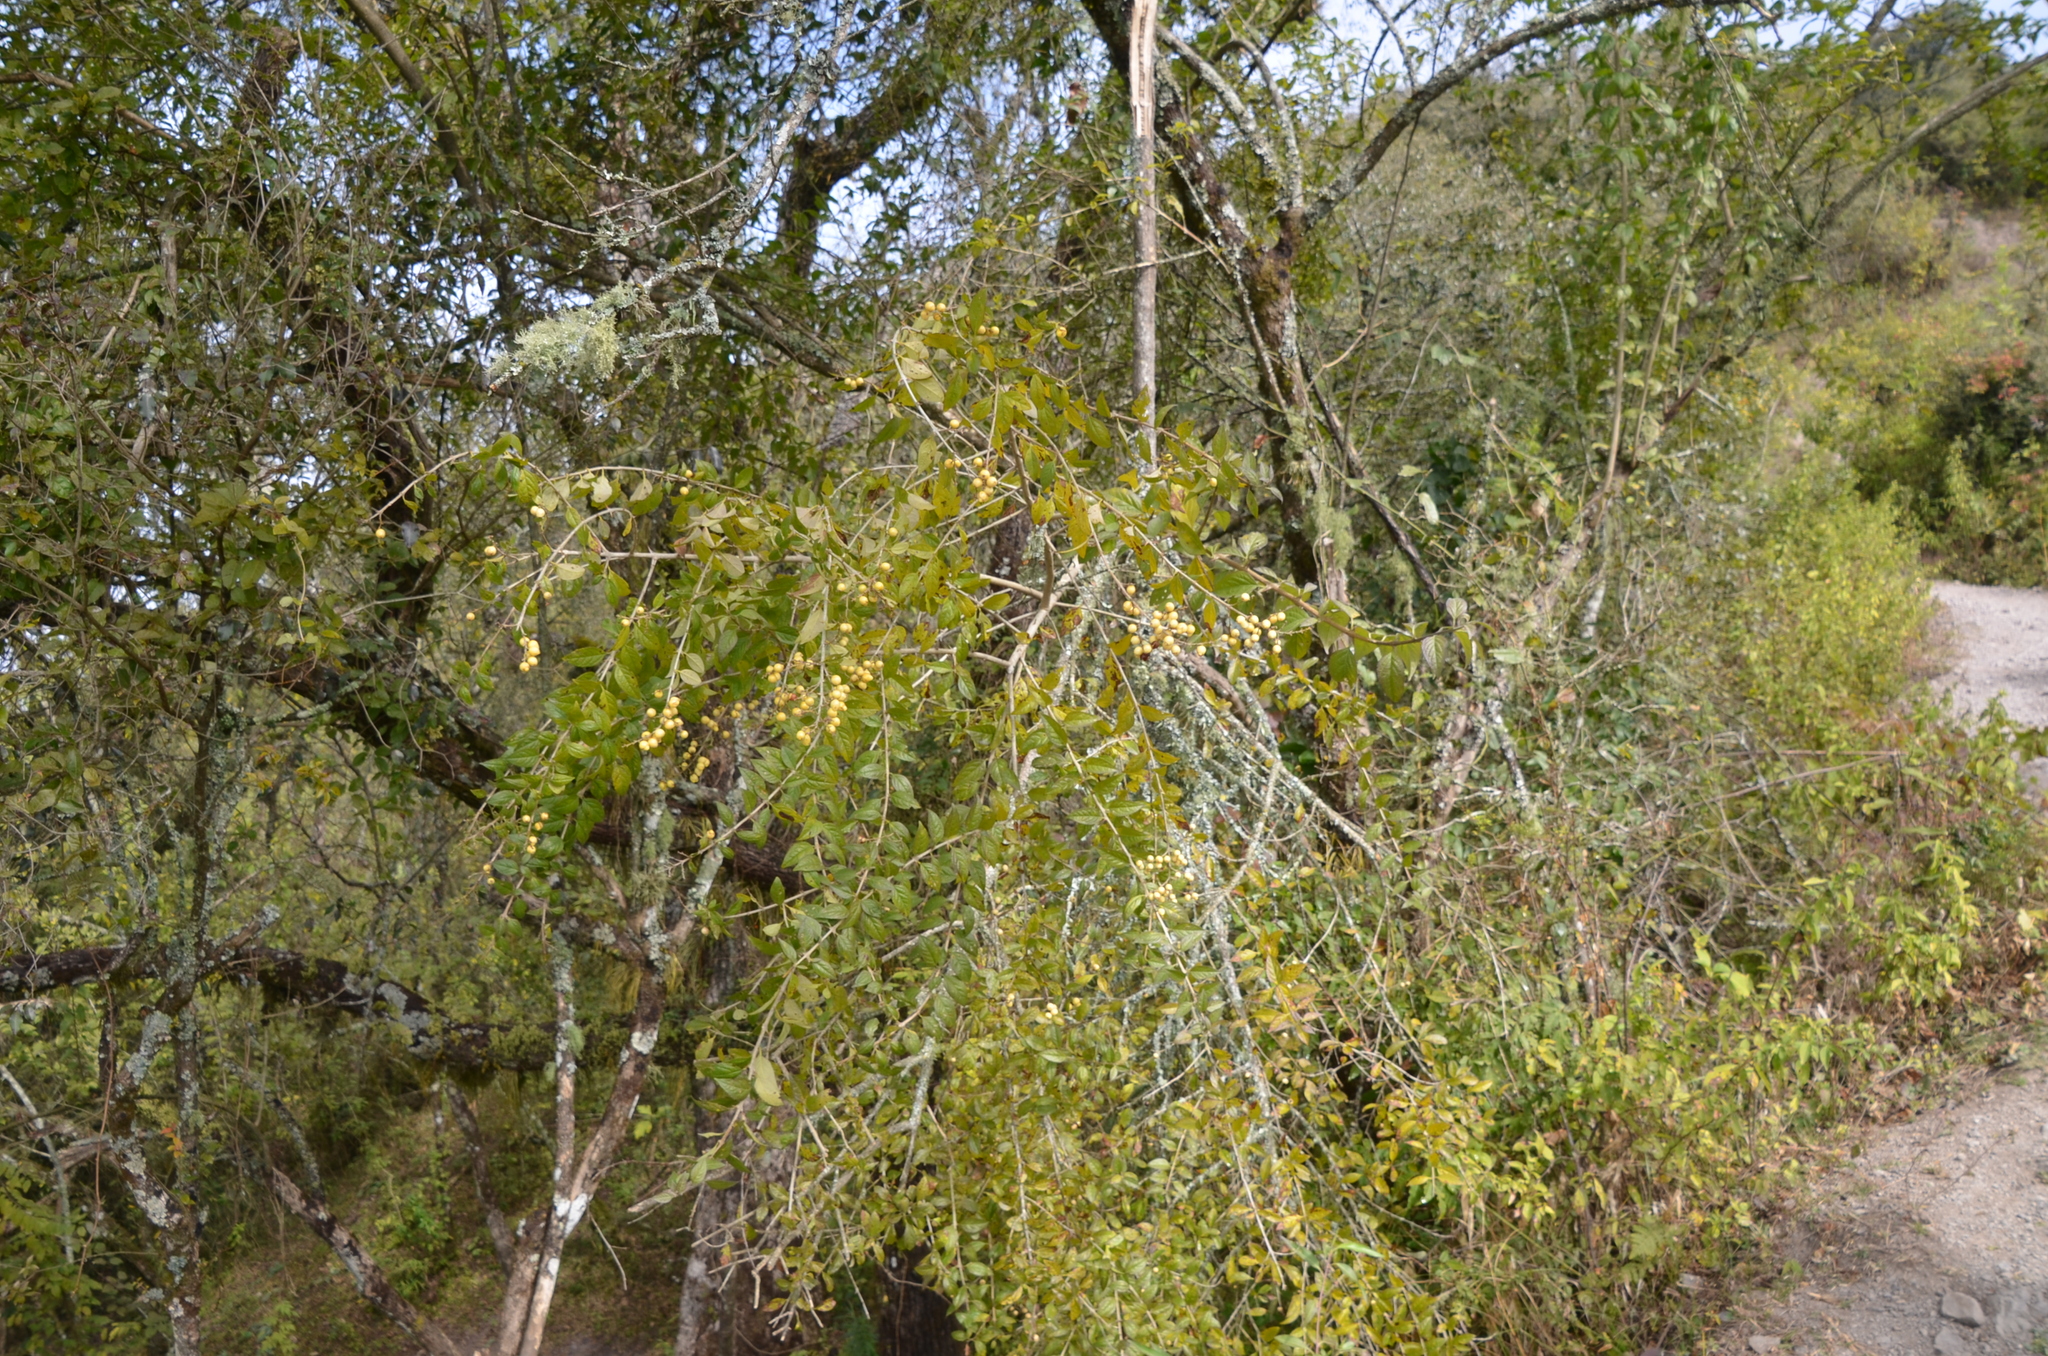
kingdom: Plantae
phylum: Tracheophyta
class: Magnoliopsida
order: Lamiales
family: Verbenaceae
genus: Duranta
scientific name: Duranta serratifolia
